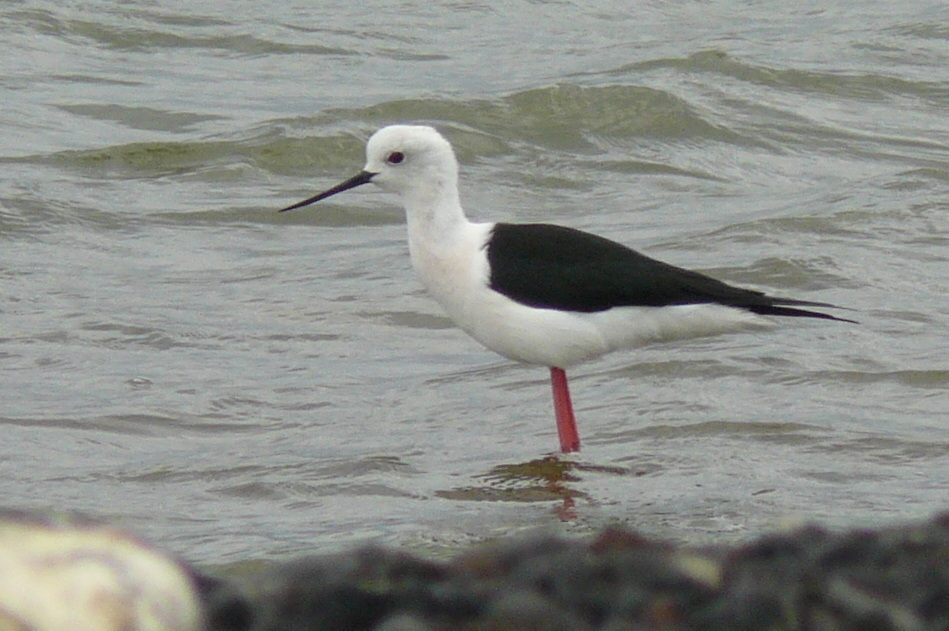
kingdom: Animalia
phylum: Chordata
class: Aves
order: Charadriiformes
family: Recurvirostridae
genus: Himantopus
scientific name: Himantopus himantopus
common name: Black-winged stilt
